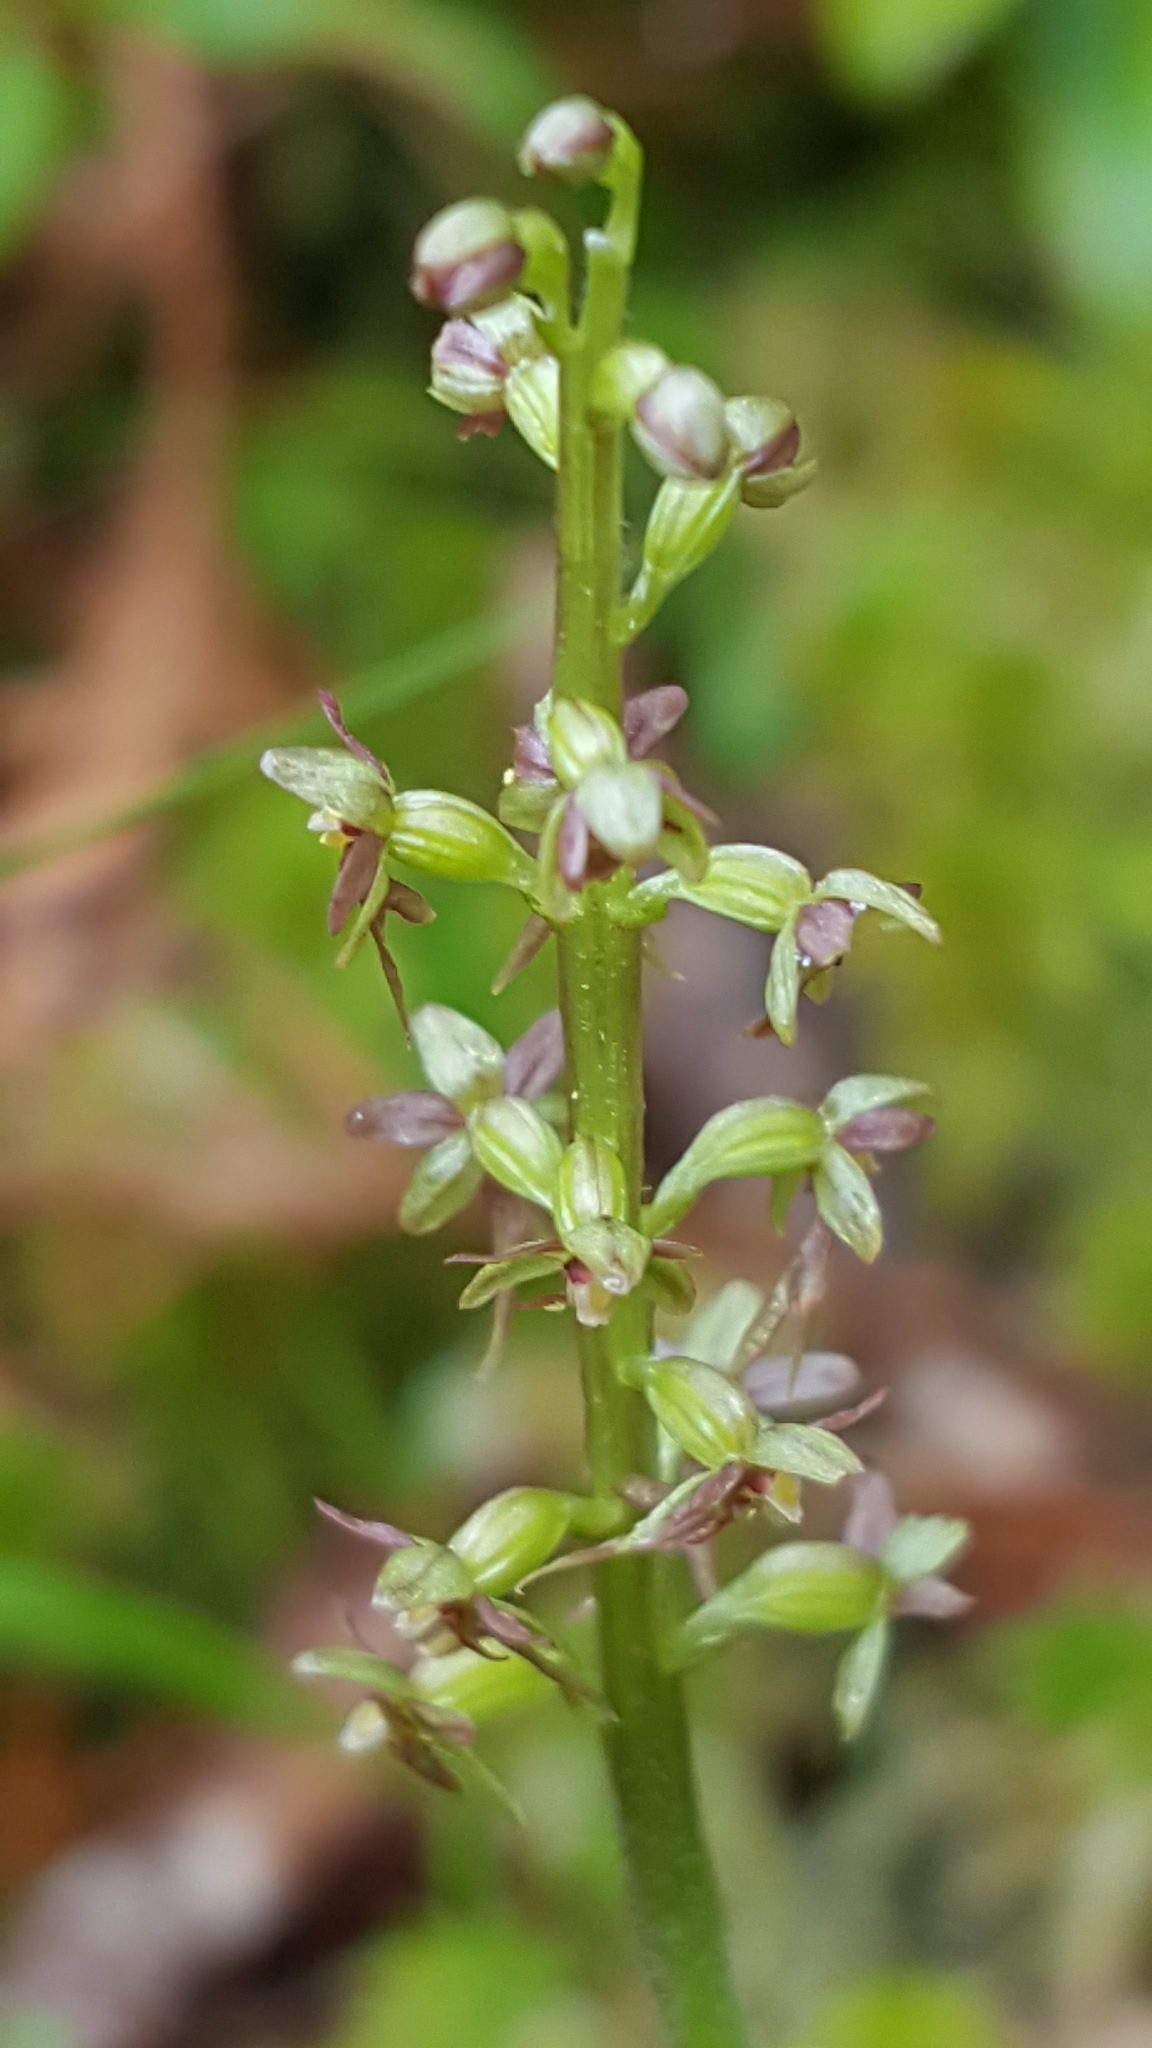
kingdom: Plantae
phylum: Tracheophyta
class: Liliopsida
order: Asparagales
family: Orchidaceae
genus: Neottia
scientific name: Neottia cordata
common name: Lesser twayblade
